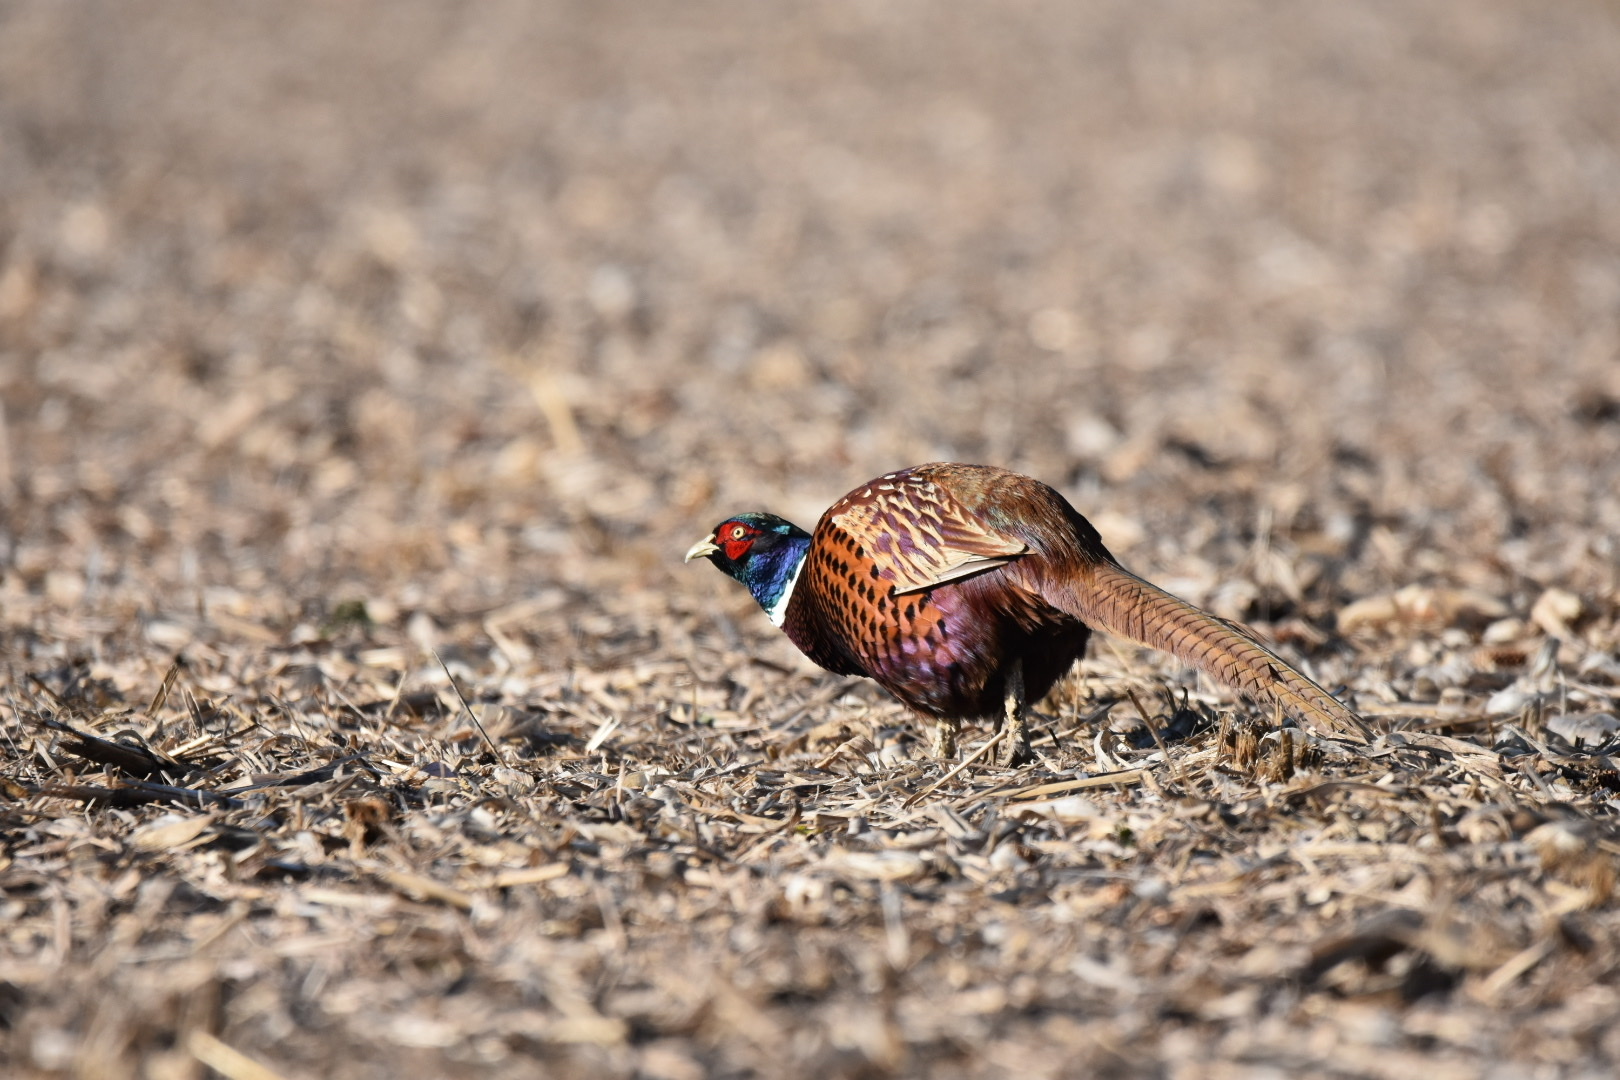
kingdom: Animalia
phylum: Chordata
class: Aves
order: Galliformes
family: Phasianidae
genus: Phasianus
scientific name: Phasianus colchicus
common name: Common pheasant
